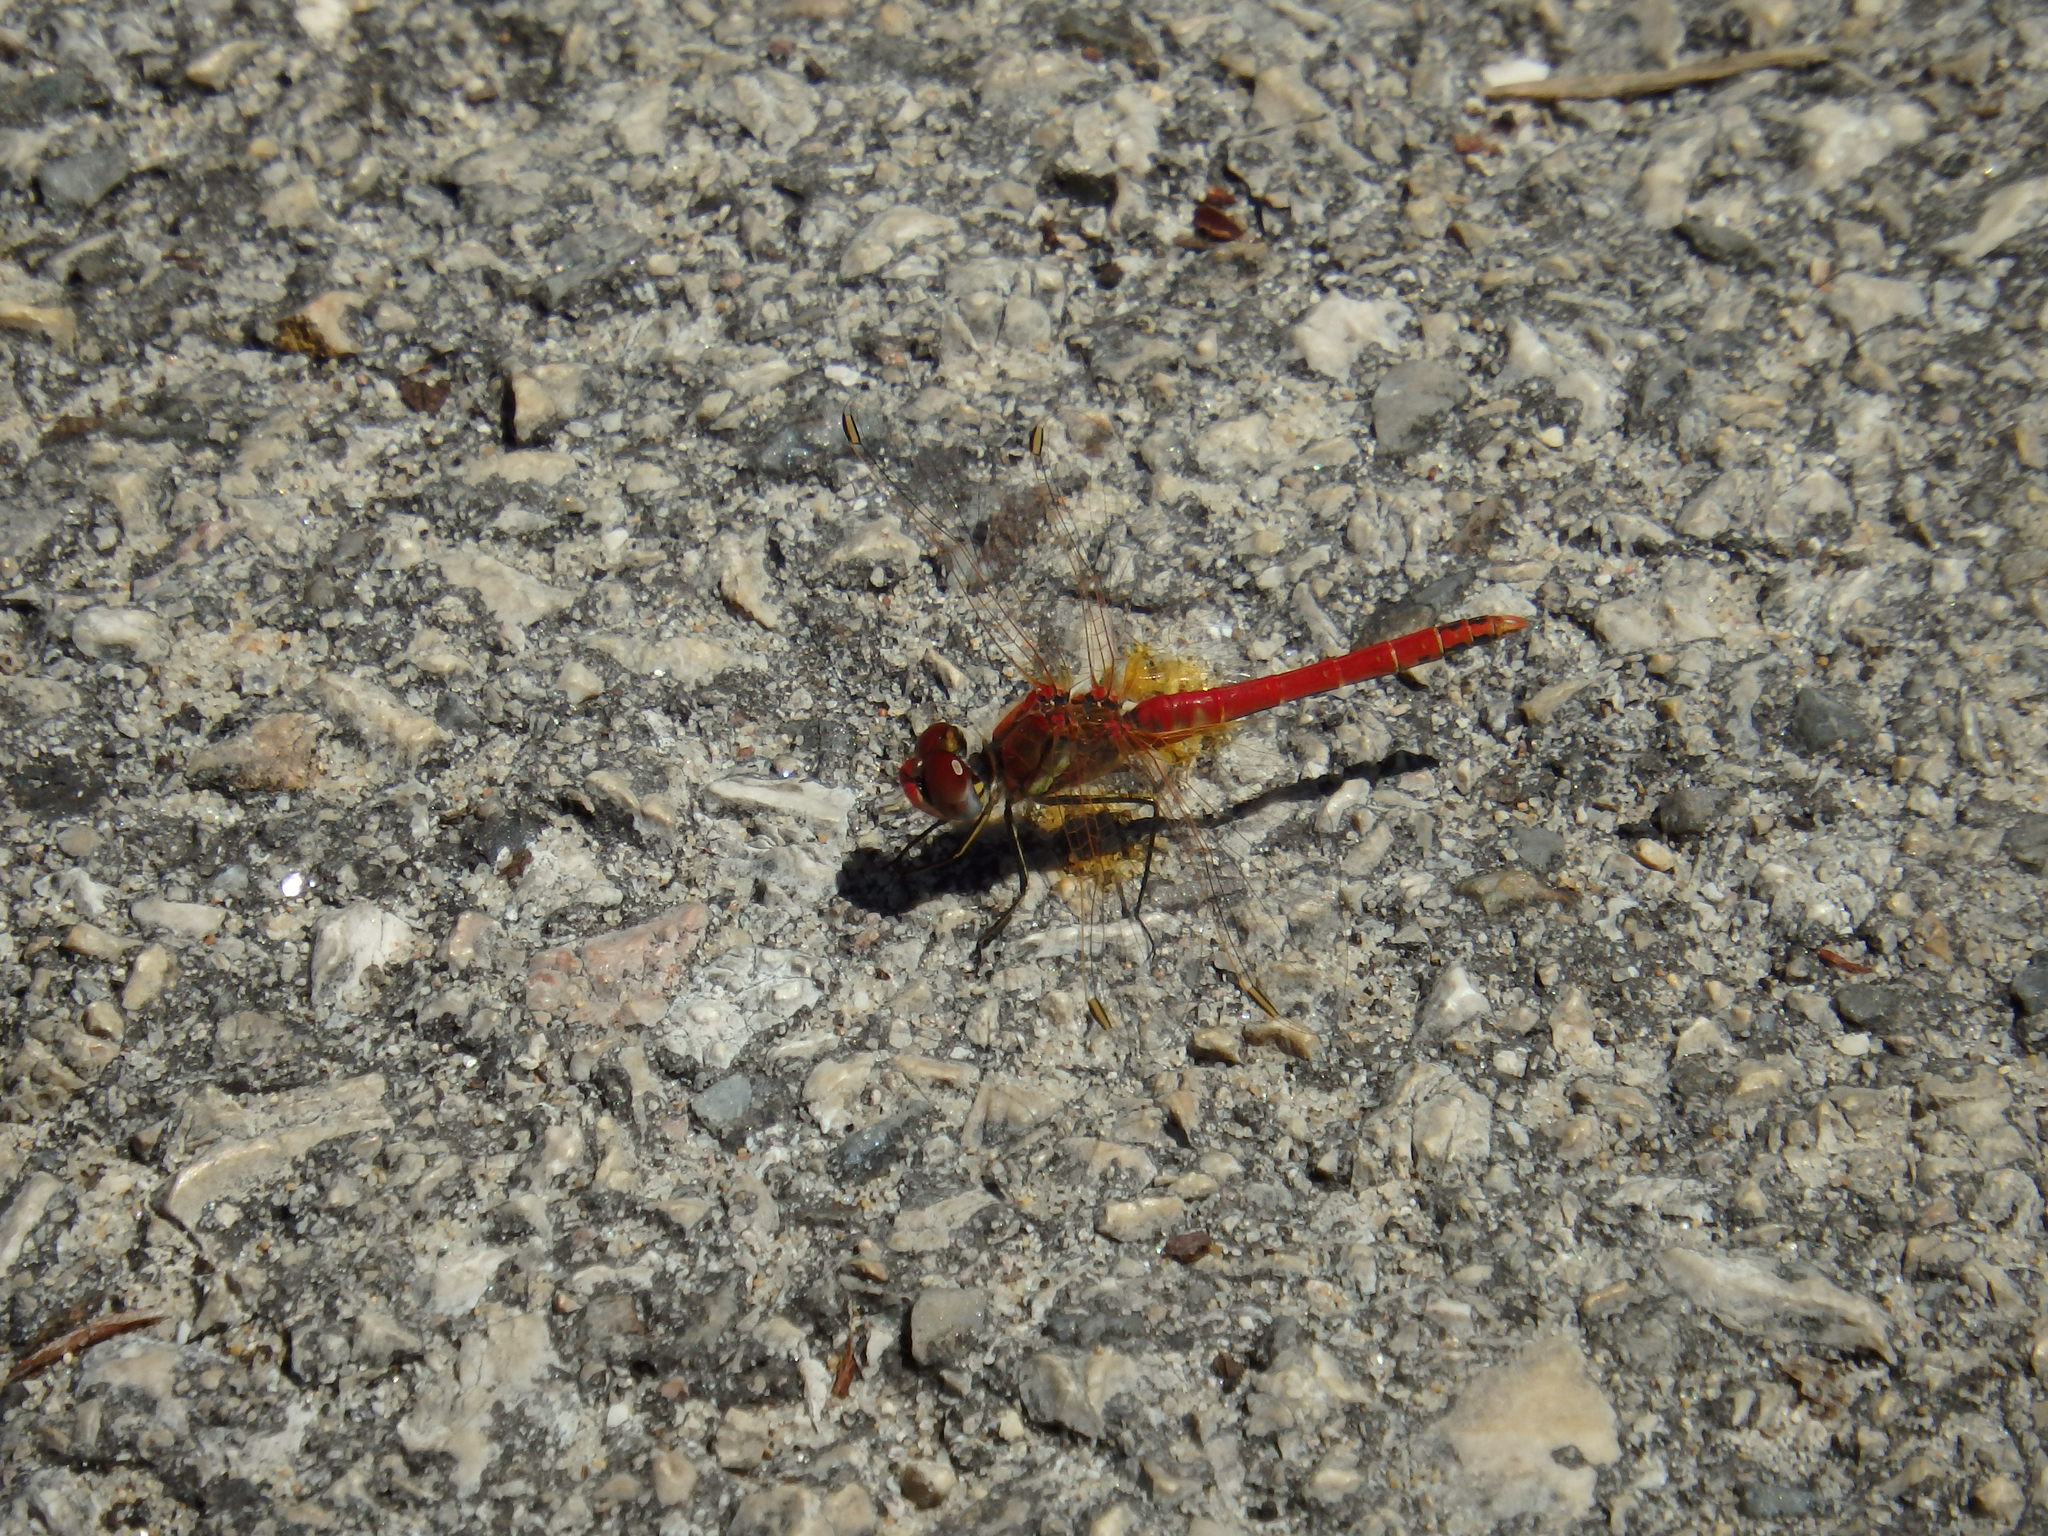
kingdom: Animalia
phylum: Arthropoda
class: Insecta
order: Odonata
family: Libellulidae
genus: Sympetrum
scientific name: Sympetrum fonscolombii
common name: Red-veined darter
